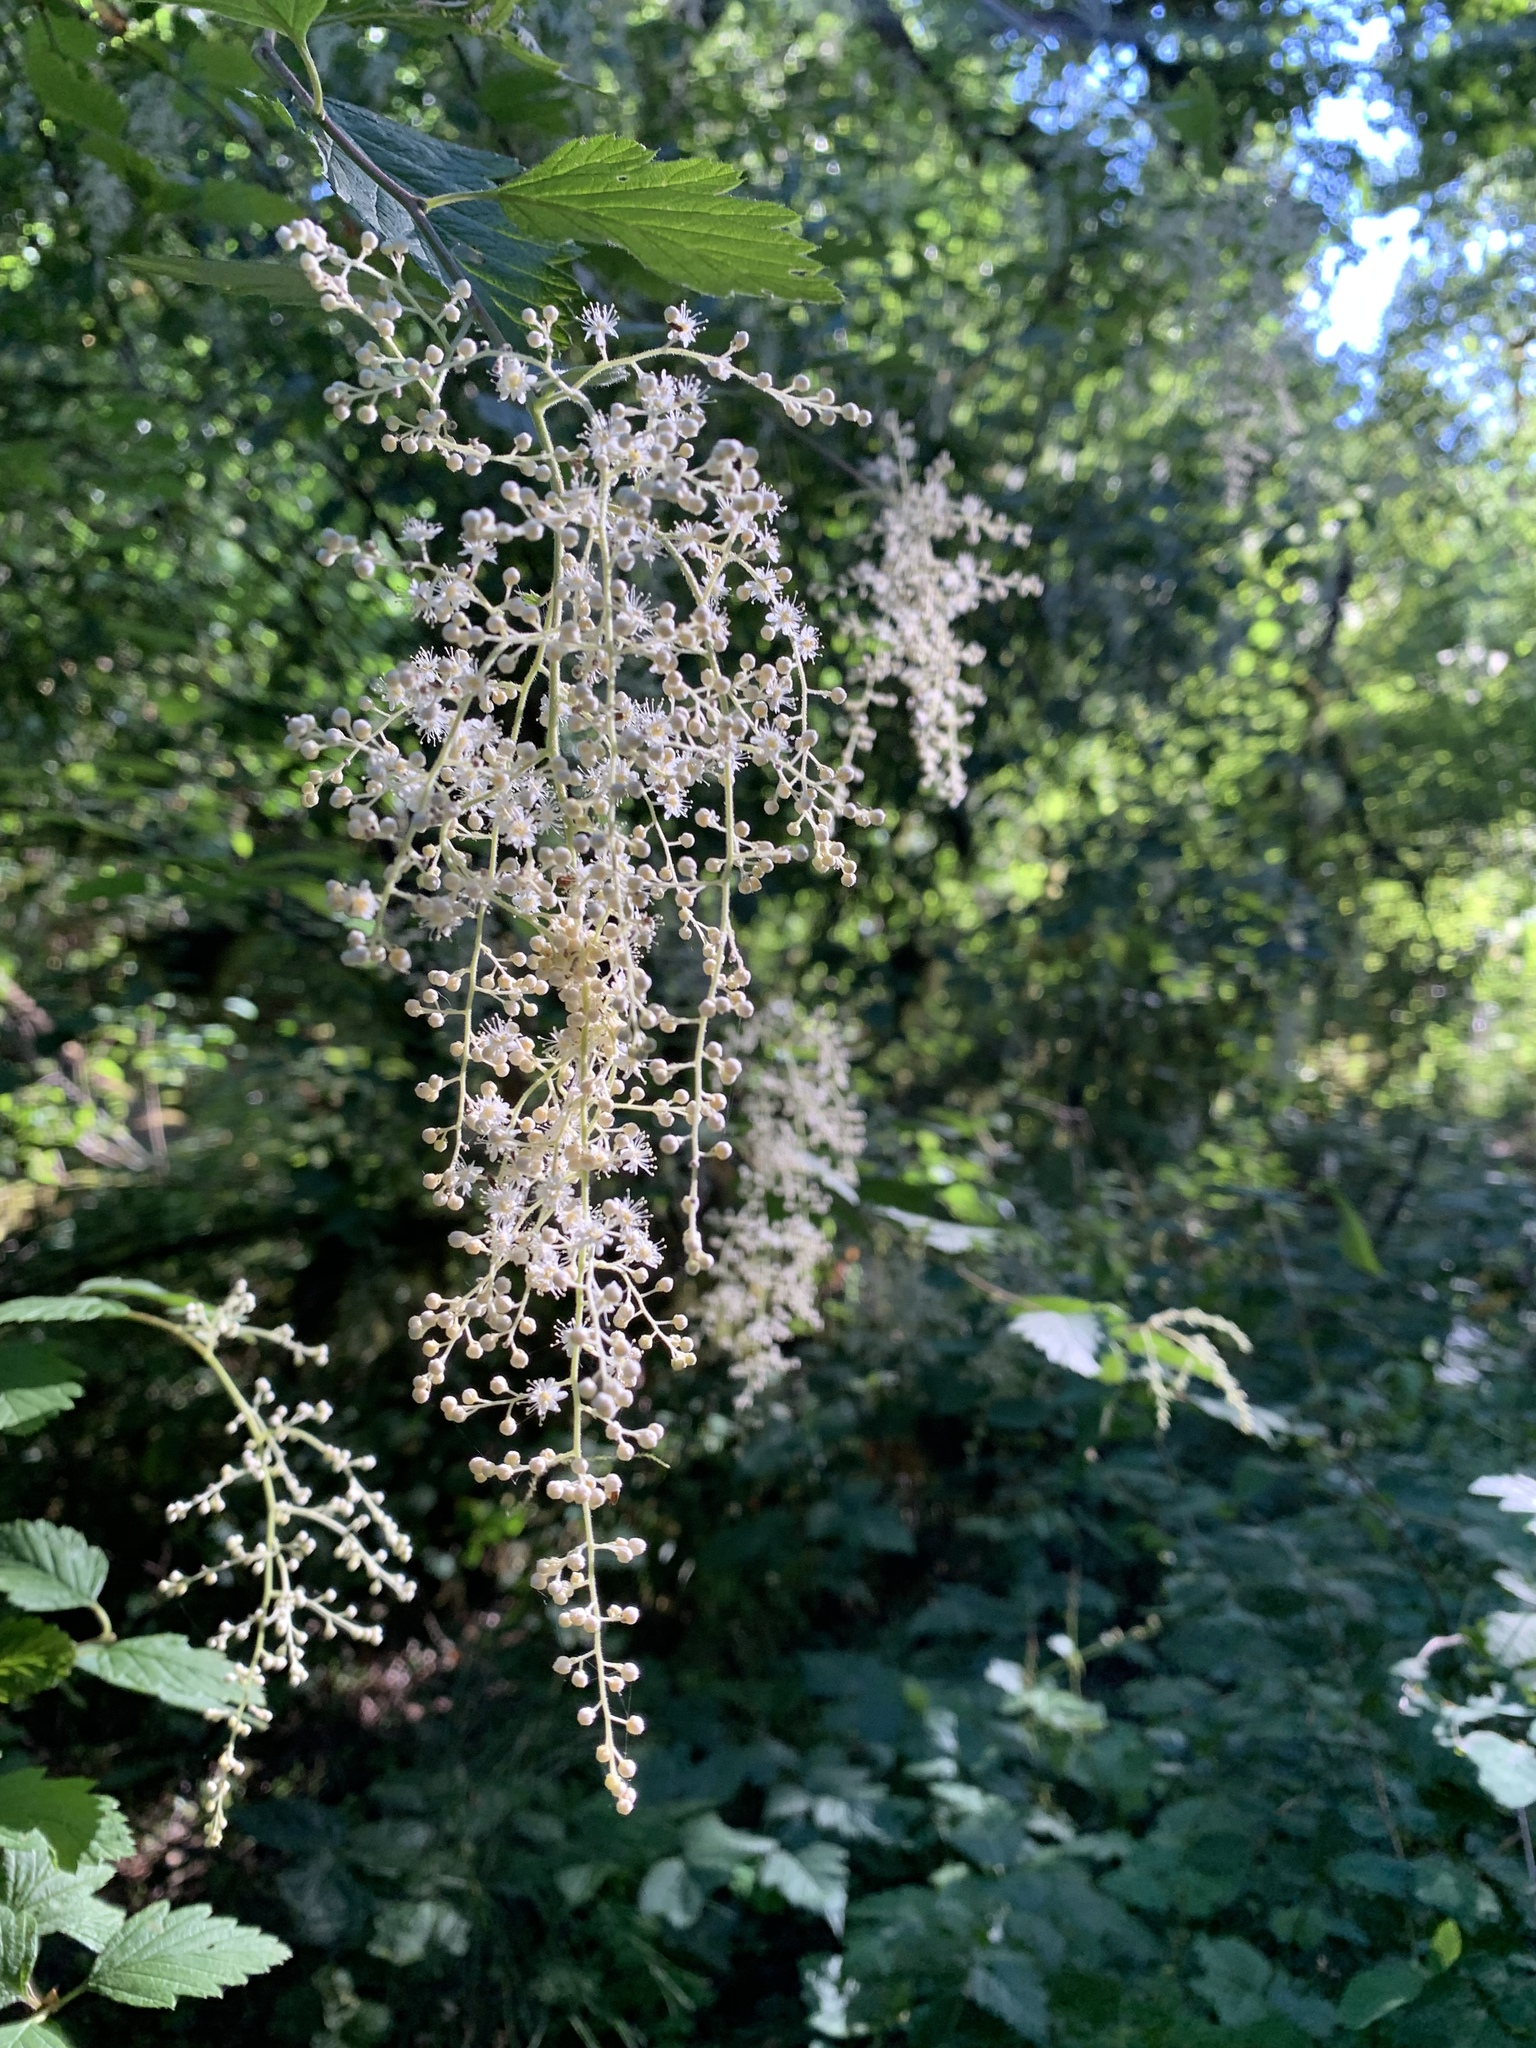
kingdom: Plantae
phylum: Tracheophyta
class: Magnoliopsida
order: Rosales
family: Rosaceae
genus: Holodiscus
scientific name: Holodiscus discolor
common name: Oceanspray
